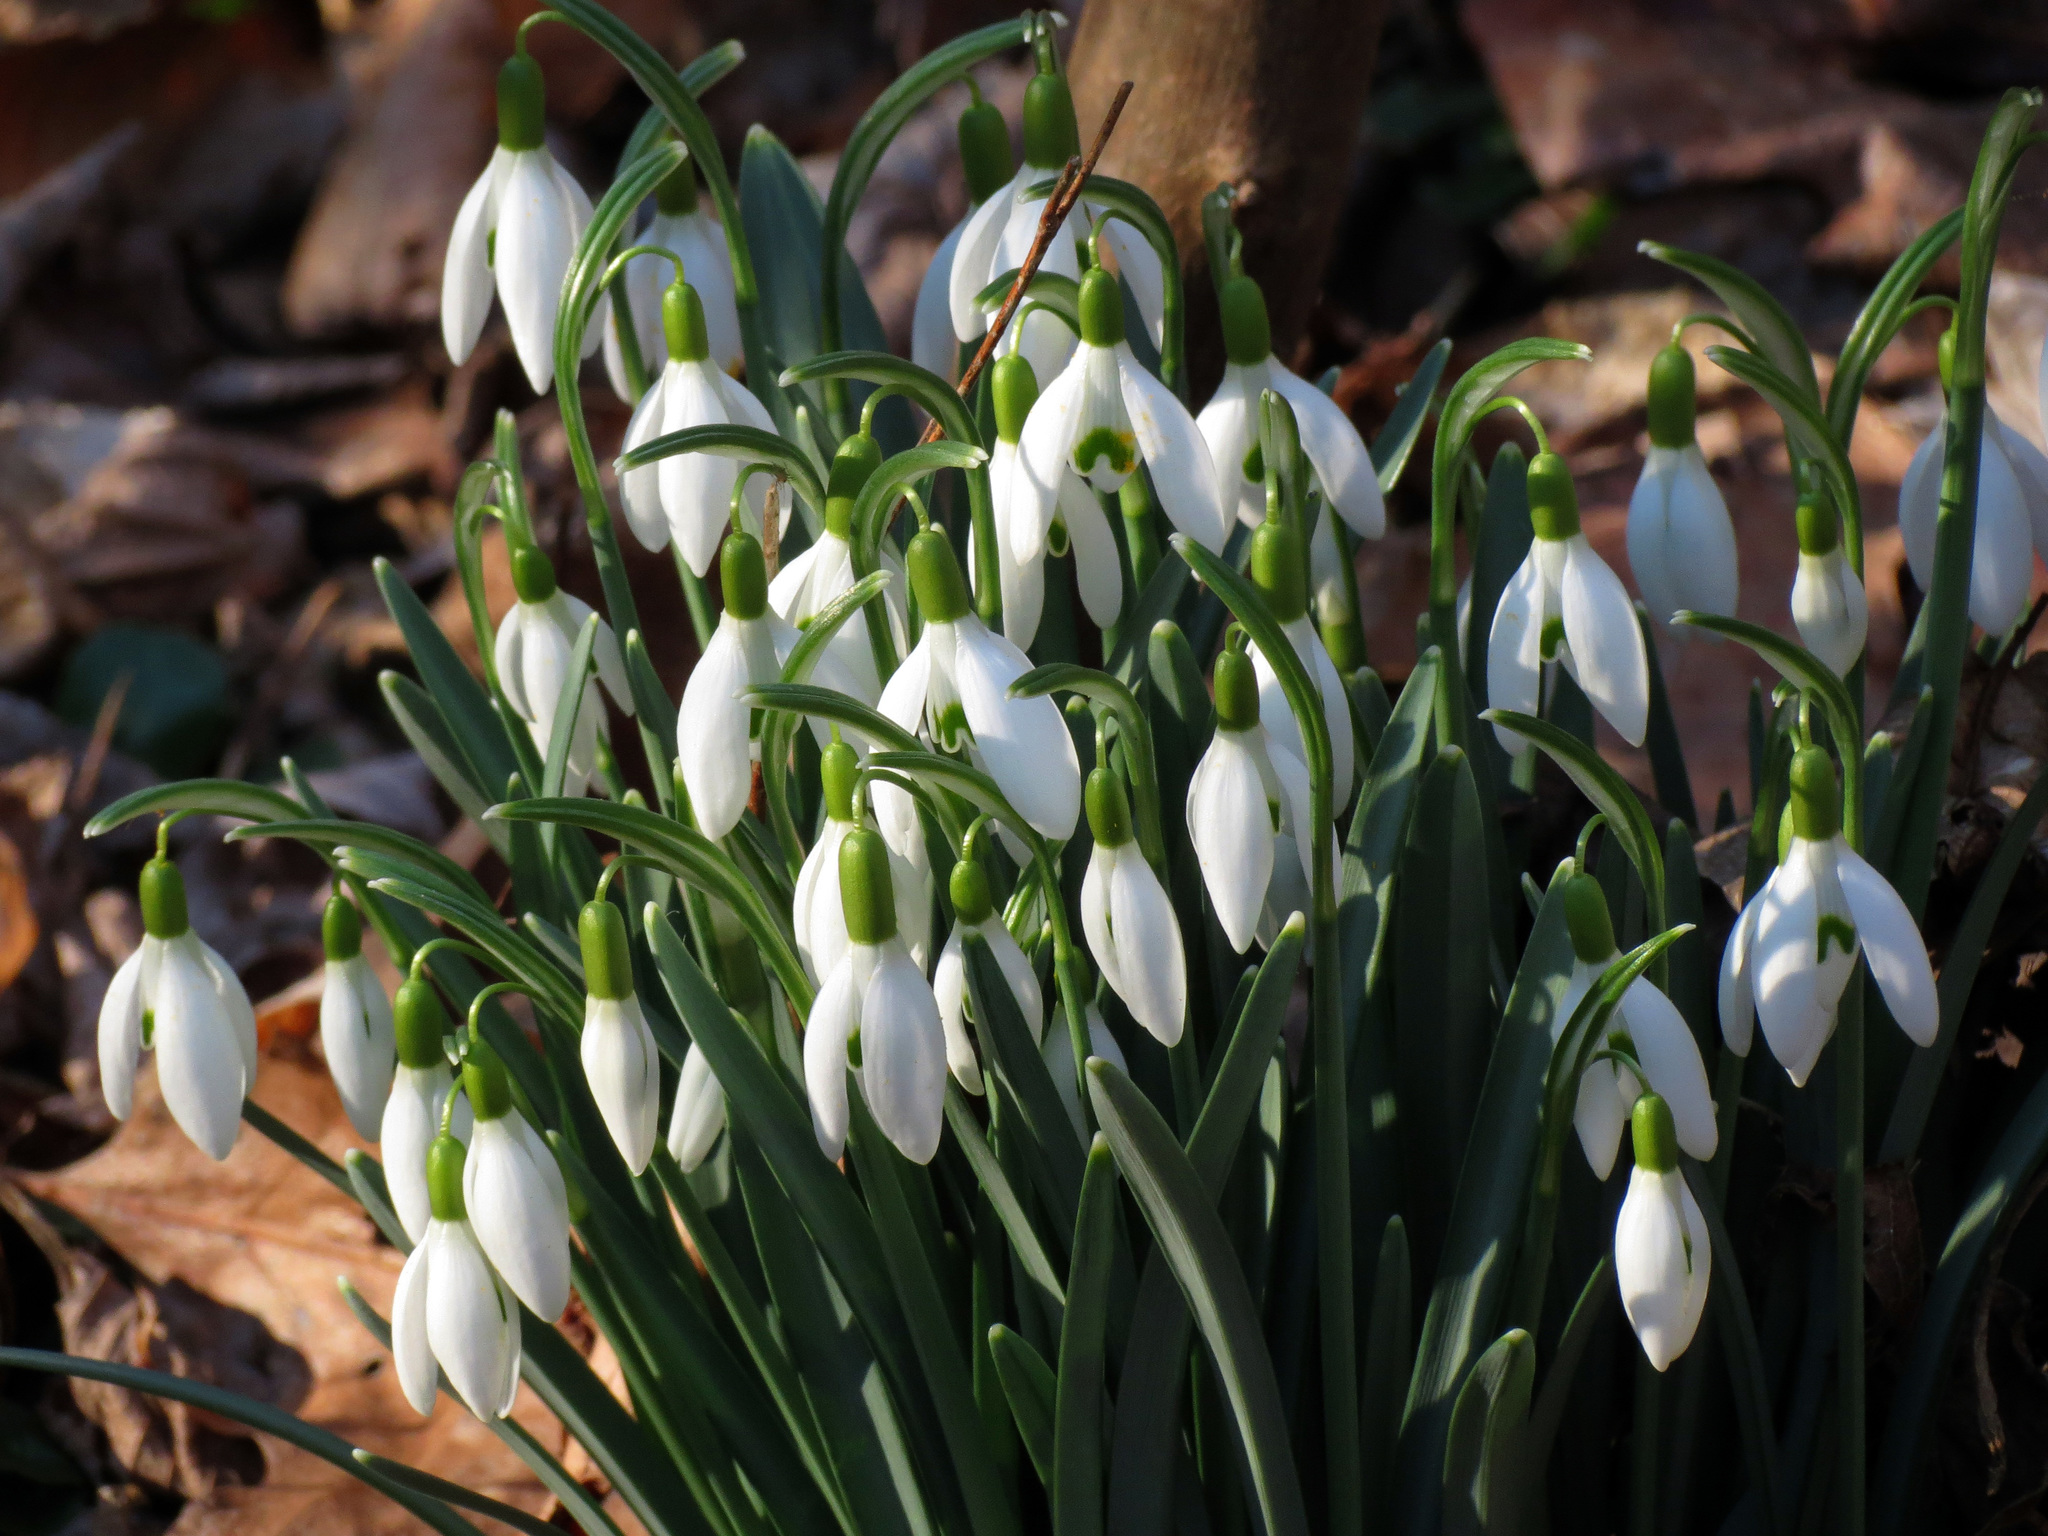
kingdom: Plantae
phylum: Tracheophyta
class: Liliopsida
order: Asparagales
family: Amaryllidaceae
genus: Galanthus
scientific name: Galanthus nivalis
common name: Snowdrop
